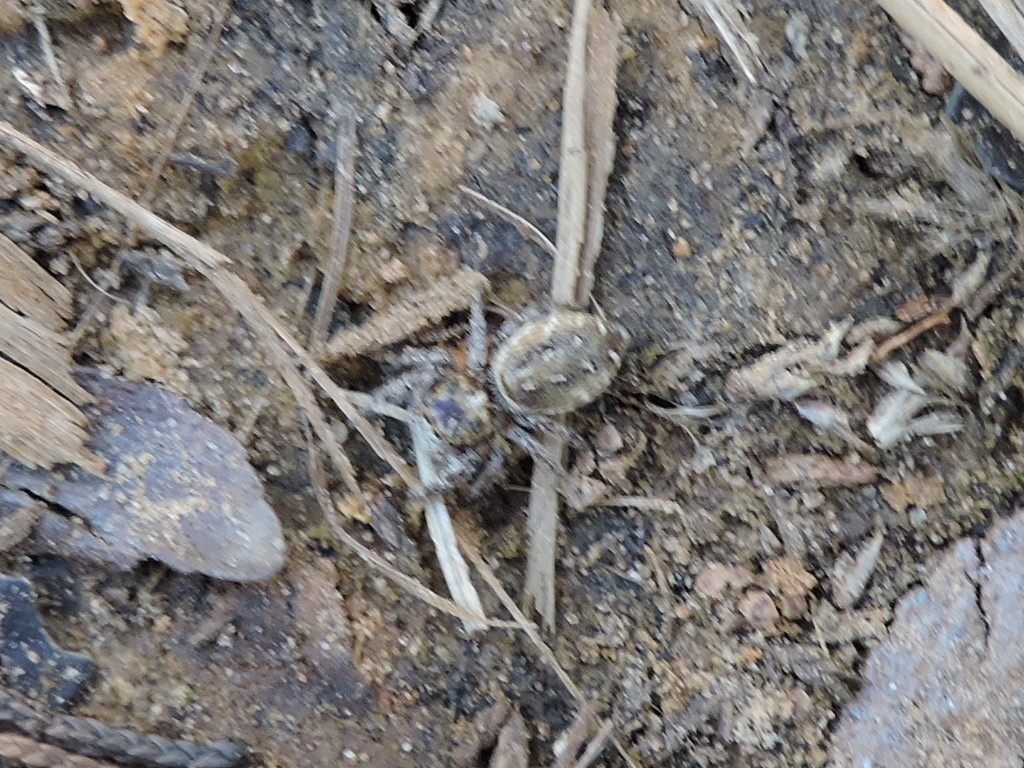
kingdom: Animalia
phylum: Arthropoda
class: Arachnida
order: Araneae
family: Salticidae
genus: Eris
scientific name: Eris militaris
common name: Bronze jumper
